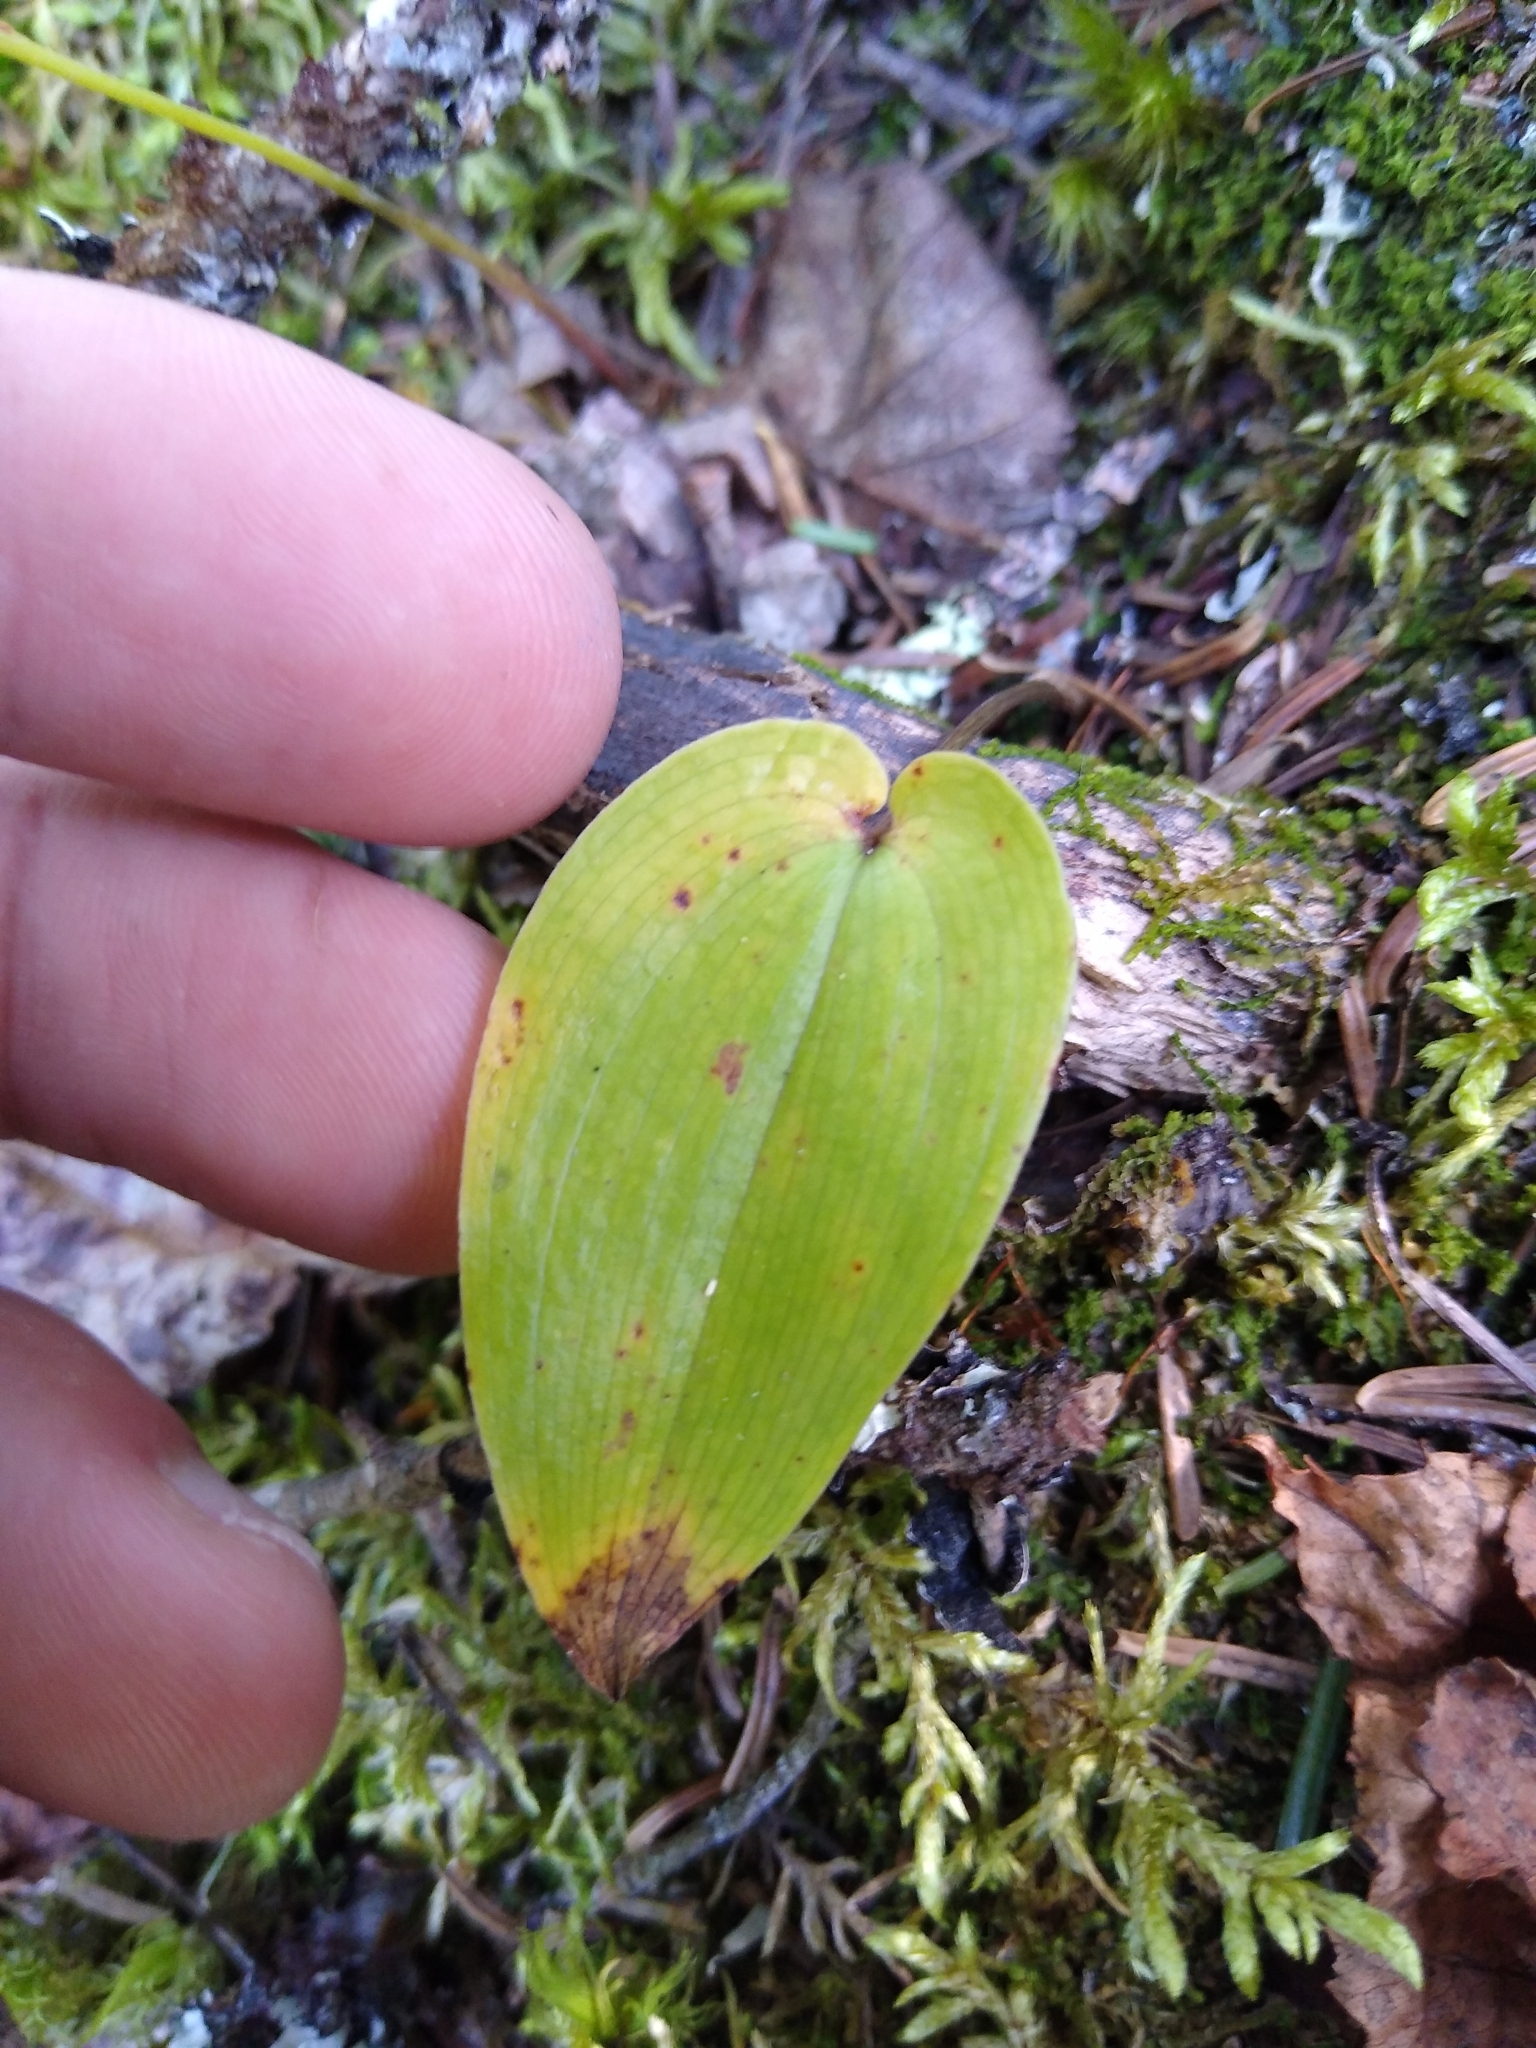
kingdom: Plantae
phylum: Tracheophyta
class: Liliopsida
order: Asparagales
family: Asparagaceae
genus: Maianthemum
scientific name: Maianthemum canadense
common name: False lily-of-the-valley
